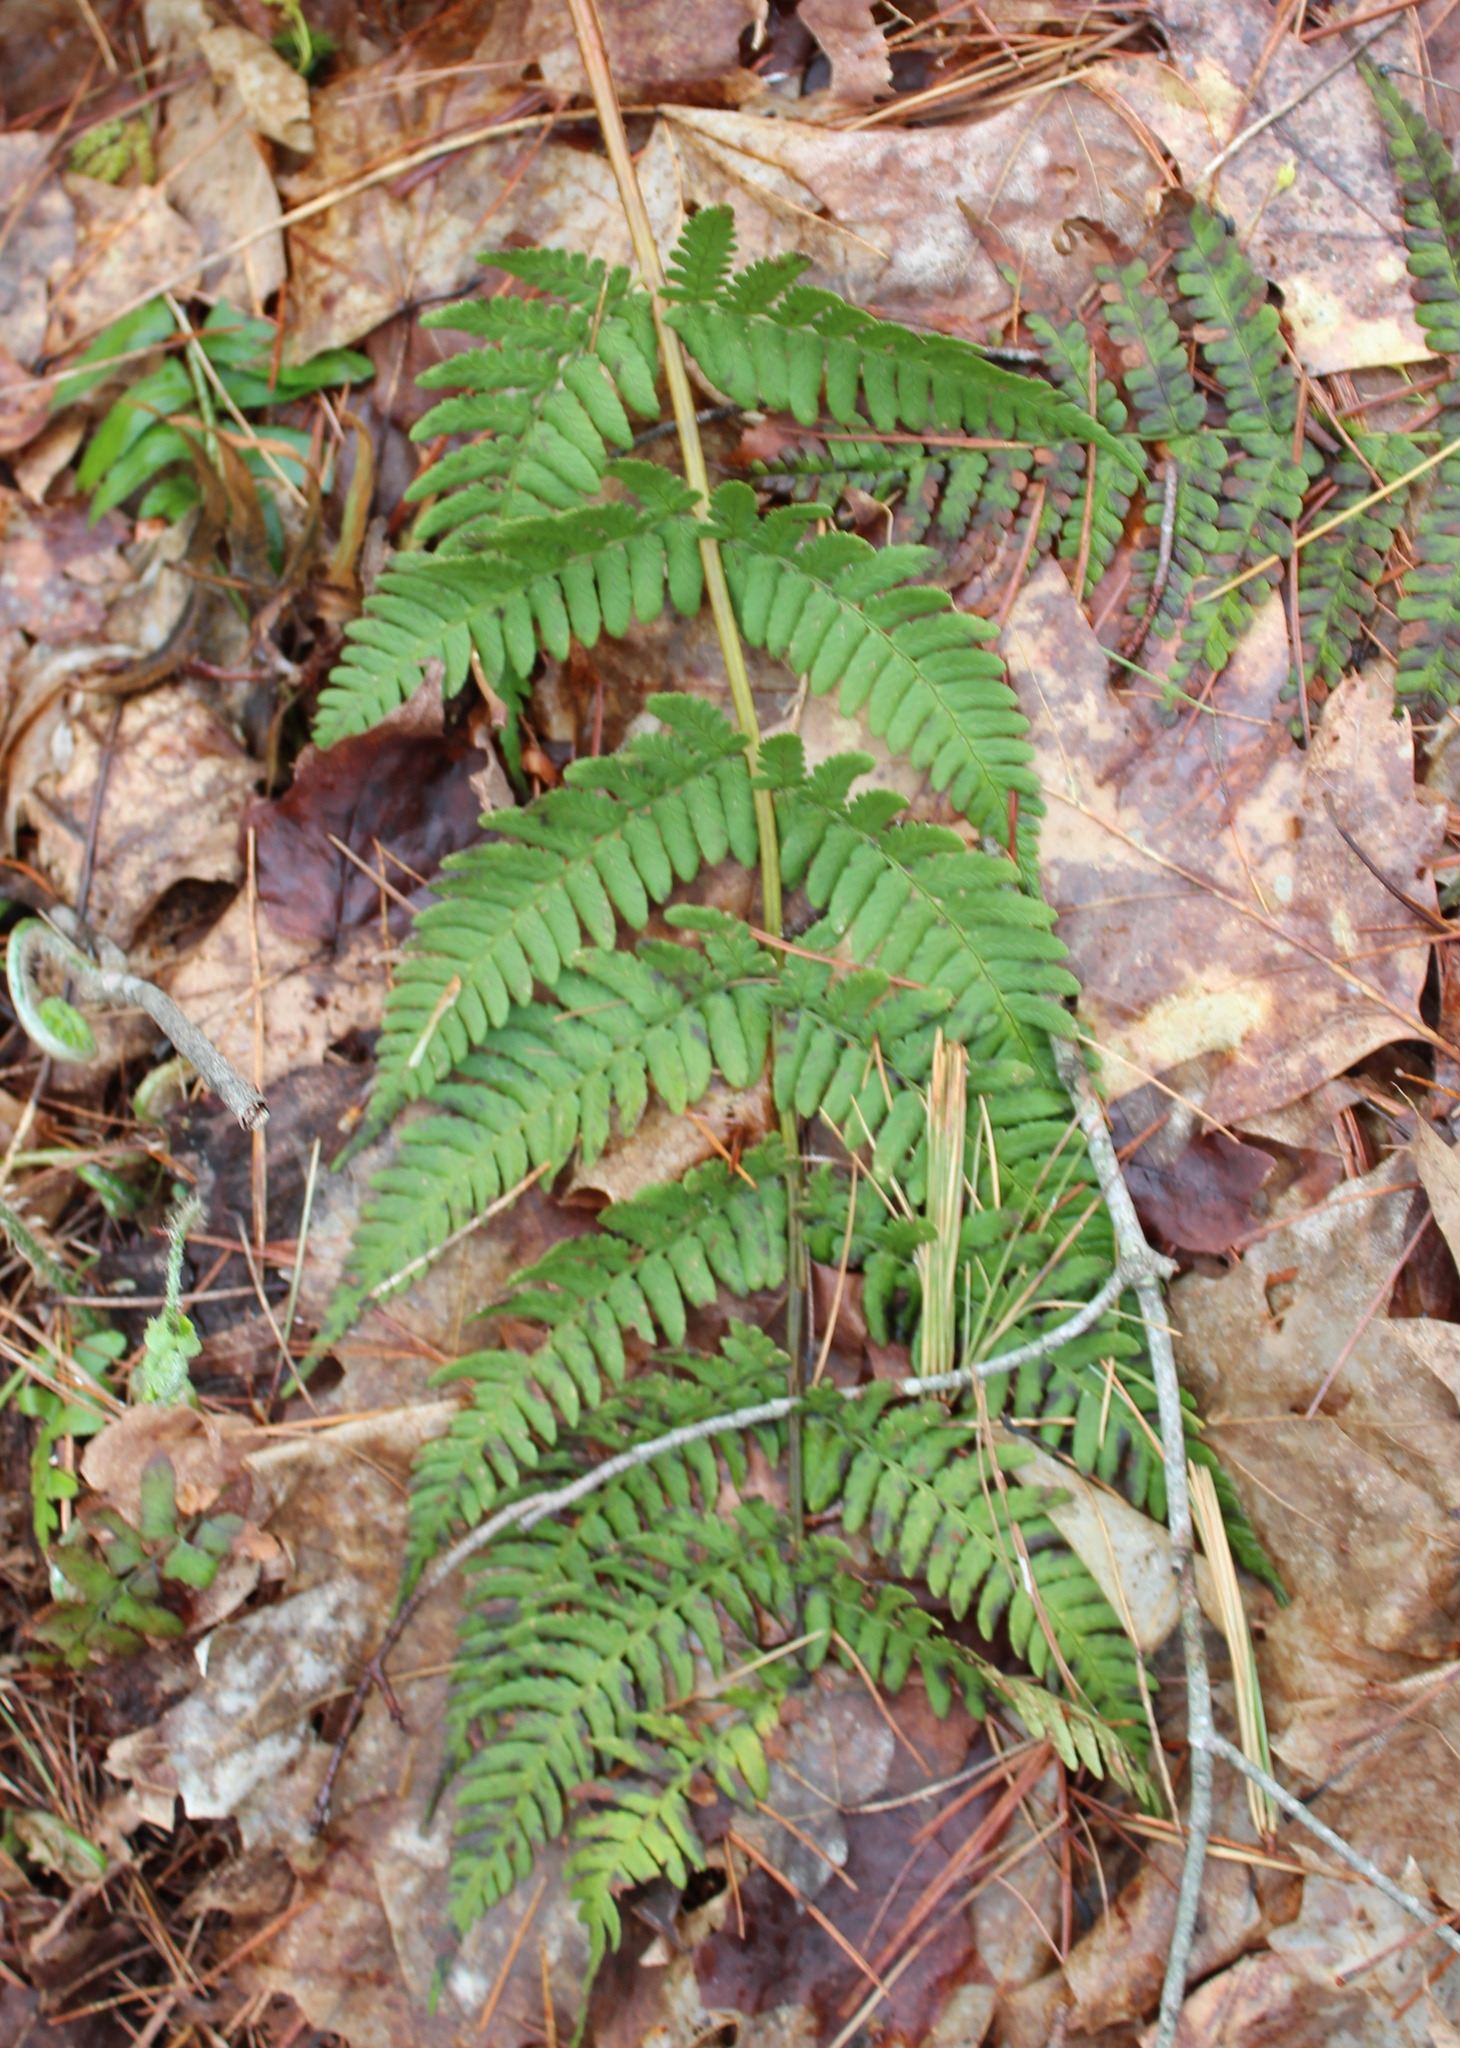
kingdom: Plantae
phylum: Tracheophyta
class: Polypodiopsida
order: Polypodiales
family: Dryopteridaceae
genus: Dryopteris
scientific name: Dryopteris marginalis
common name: Marginal wood fern
